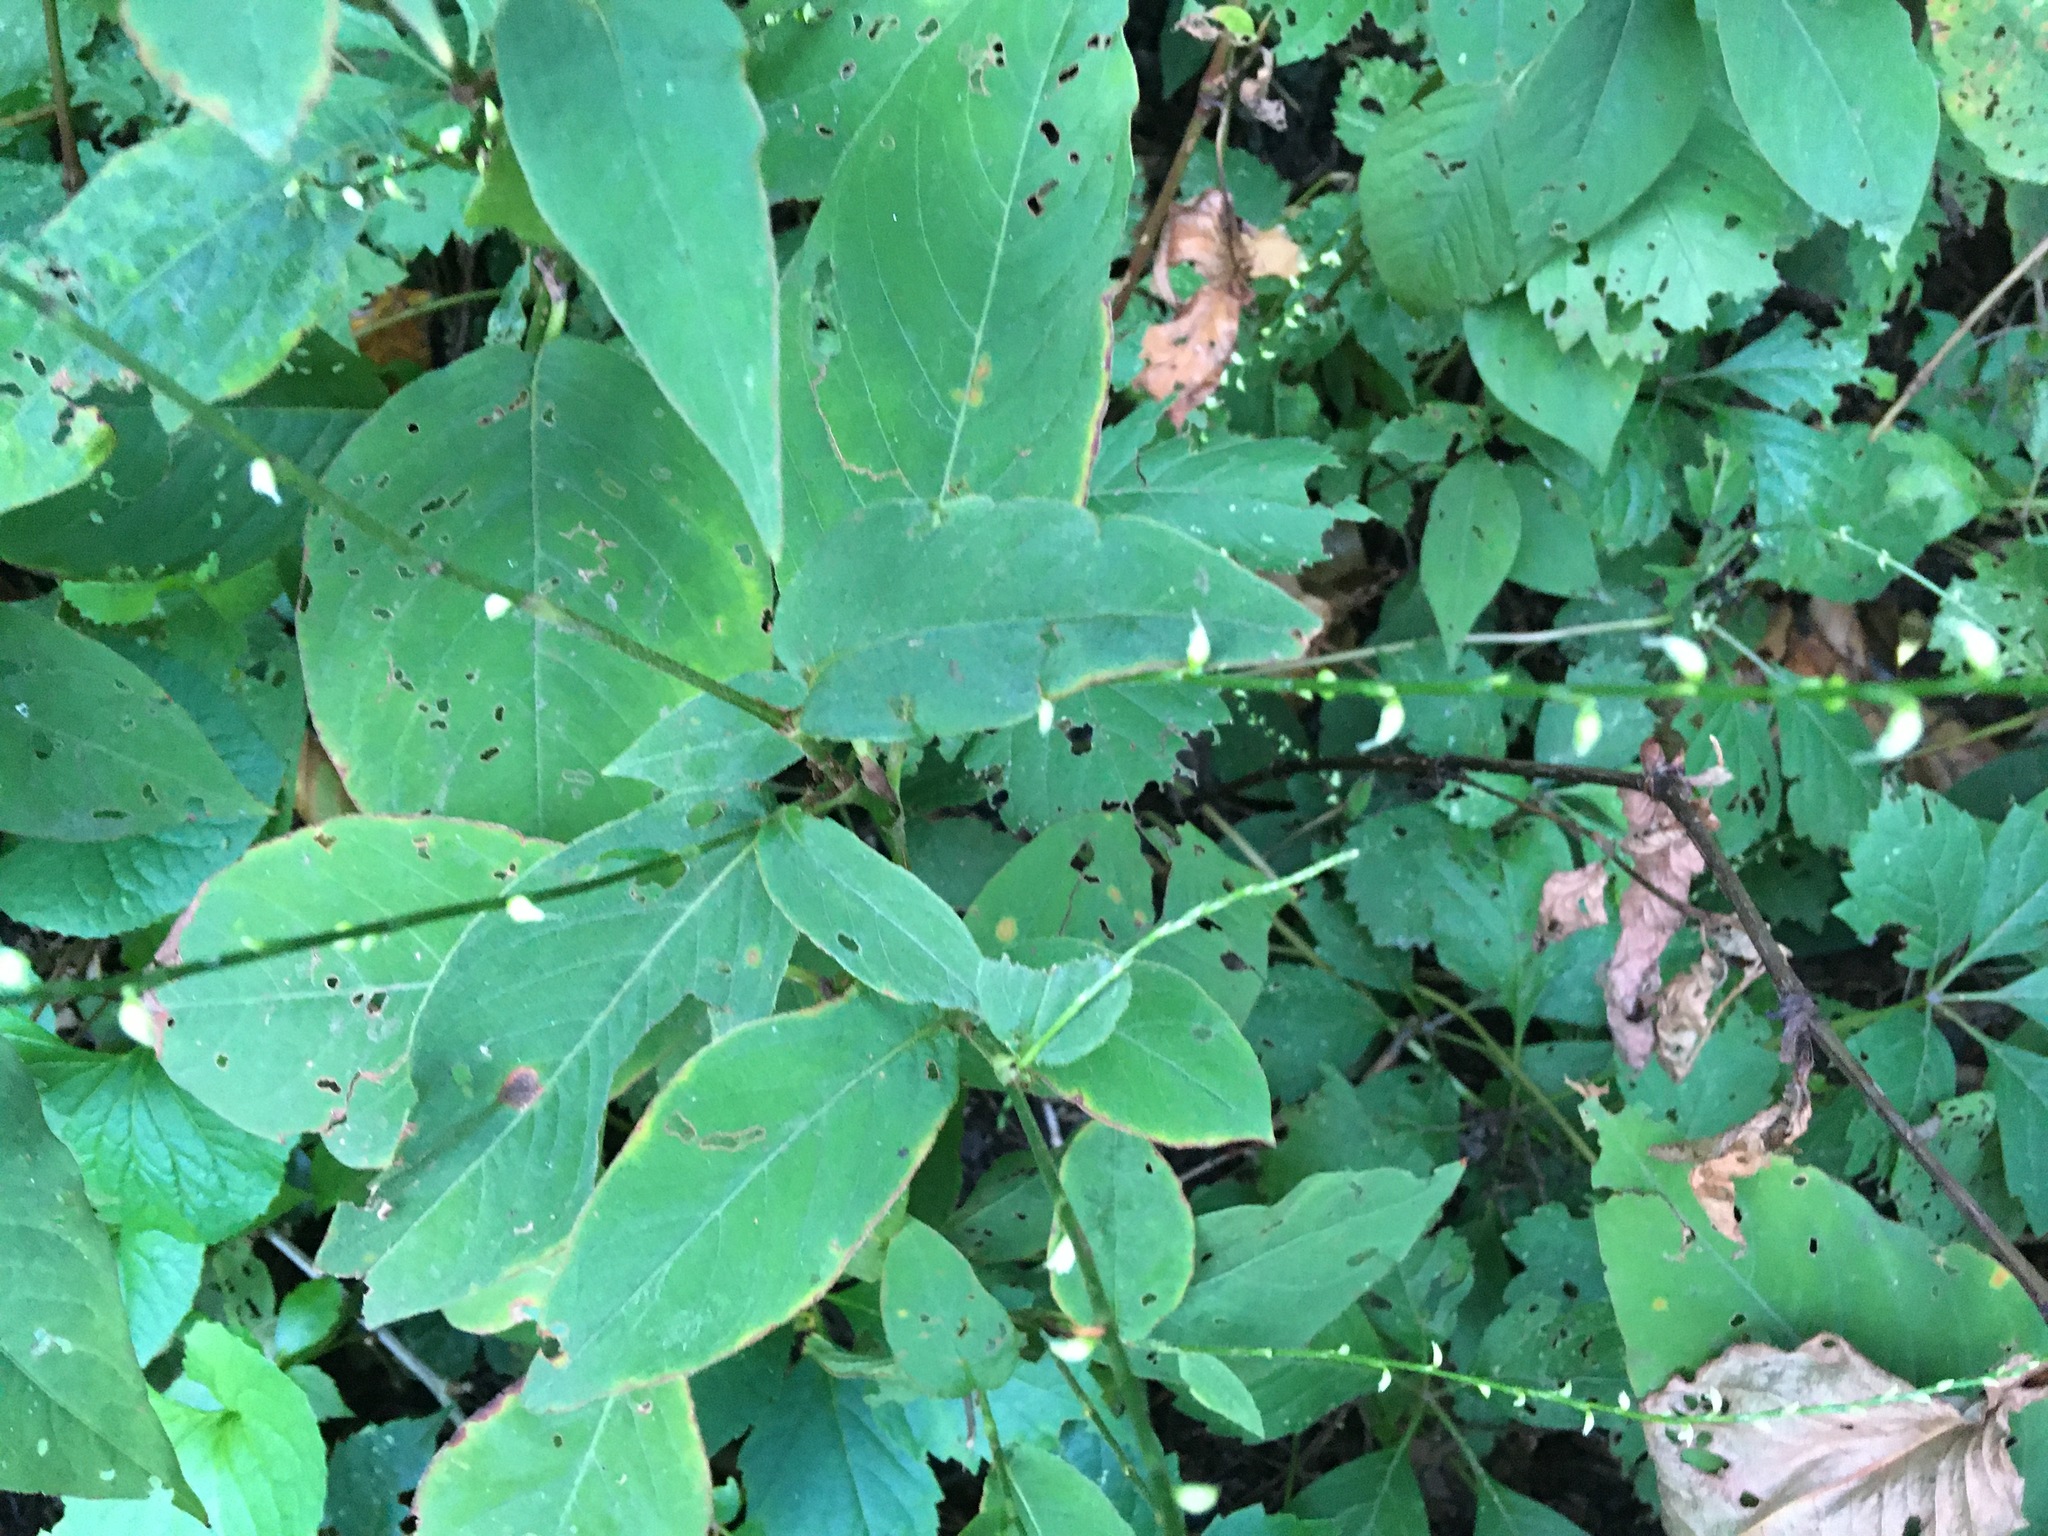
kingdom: Plantae
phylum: Tracheophyta
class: Magnoliopsida
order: Caryophyllales
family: Polygonaceae
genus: Persicaria
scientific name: Persicaria virginiana
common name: Jumpseed
